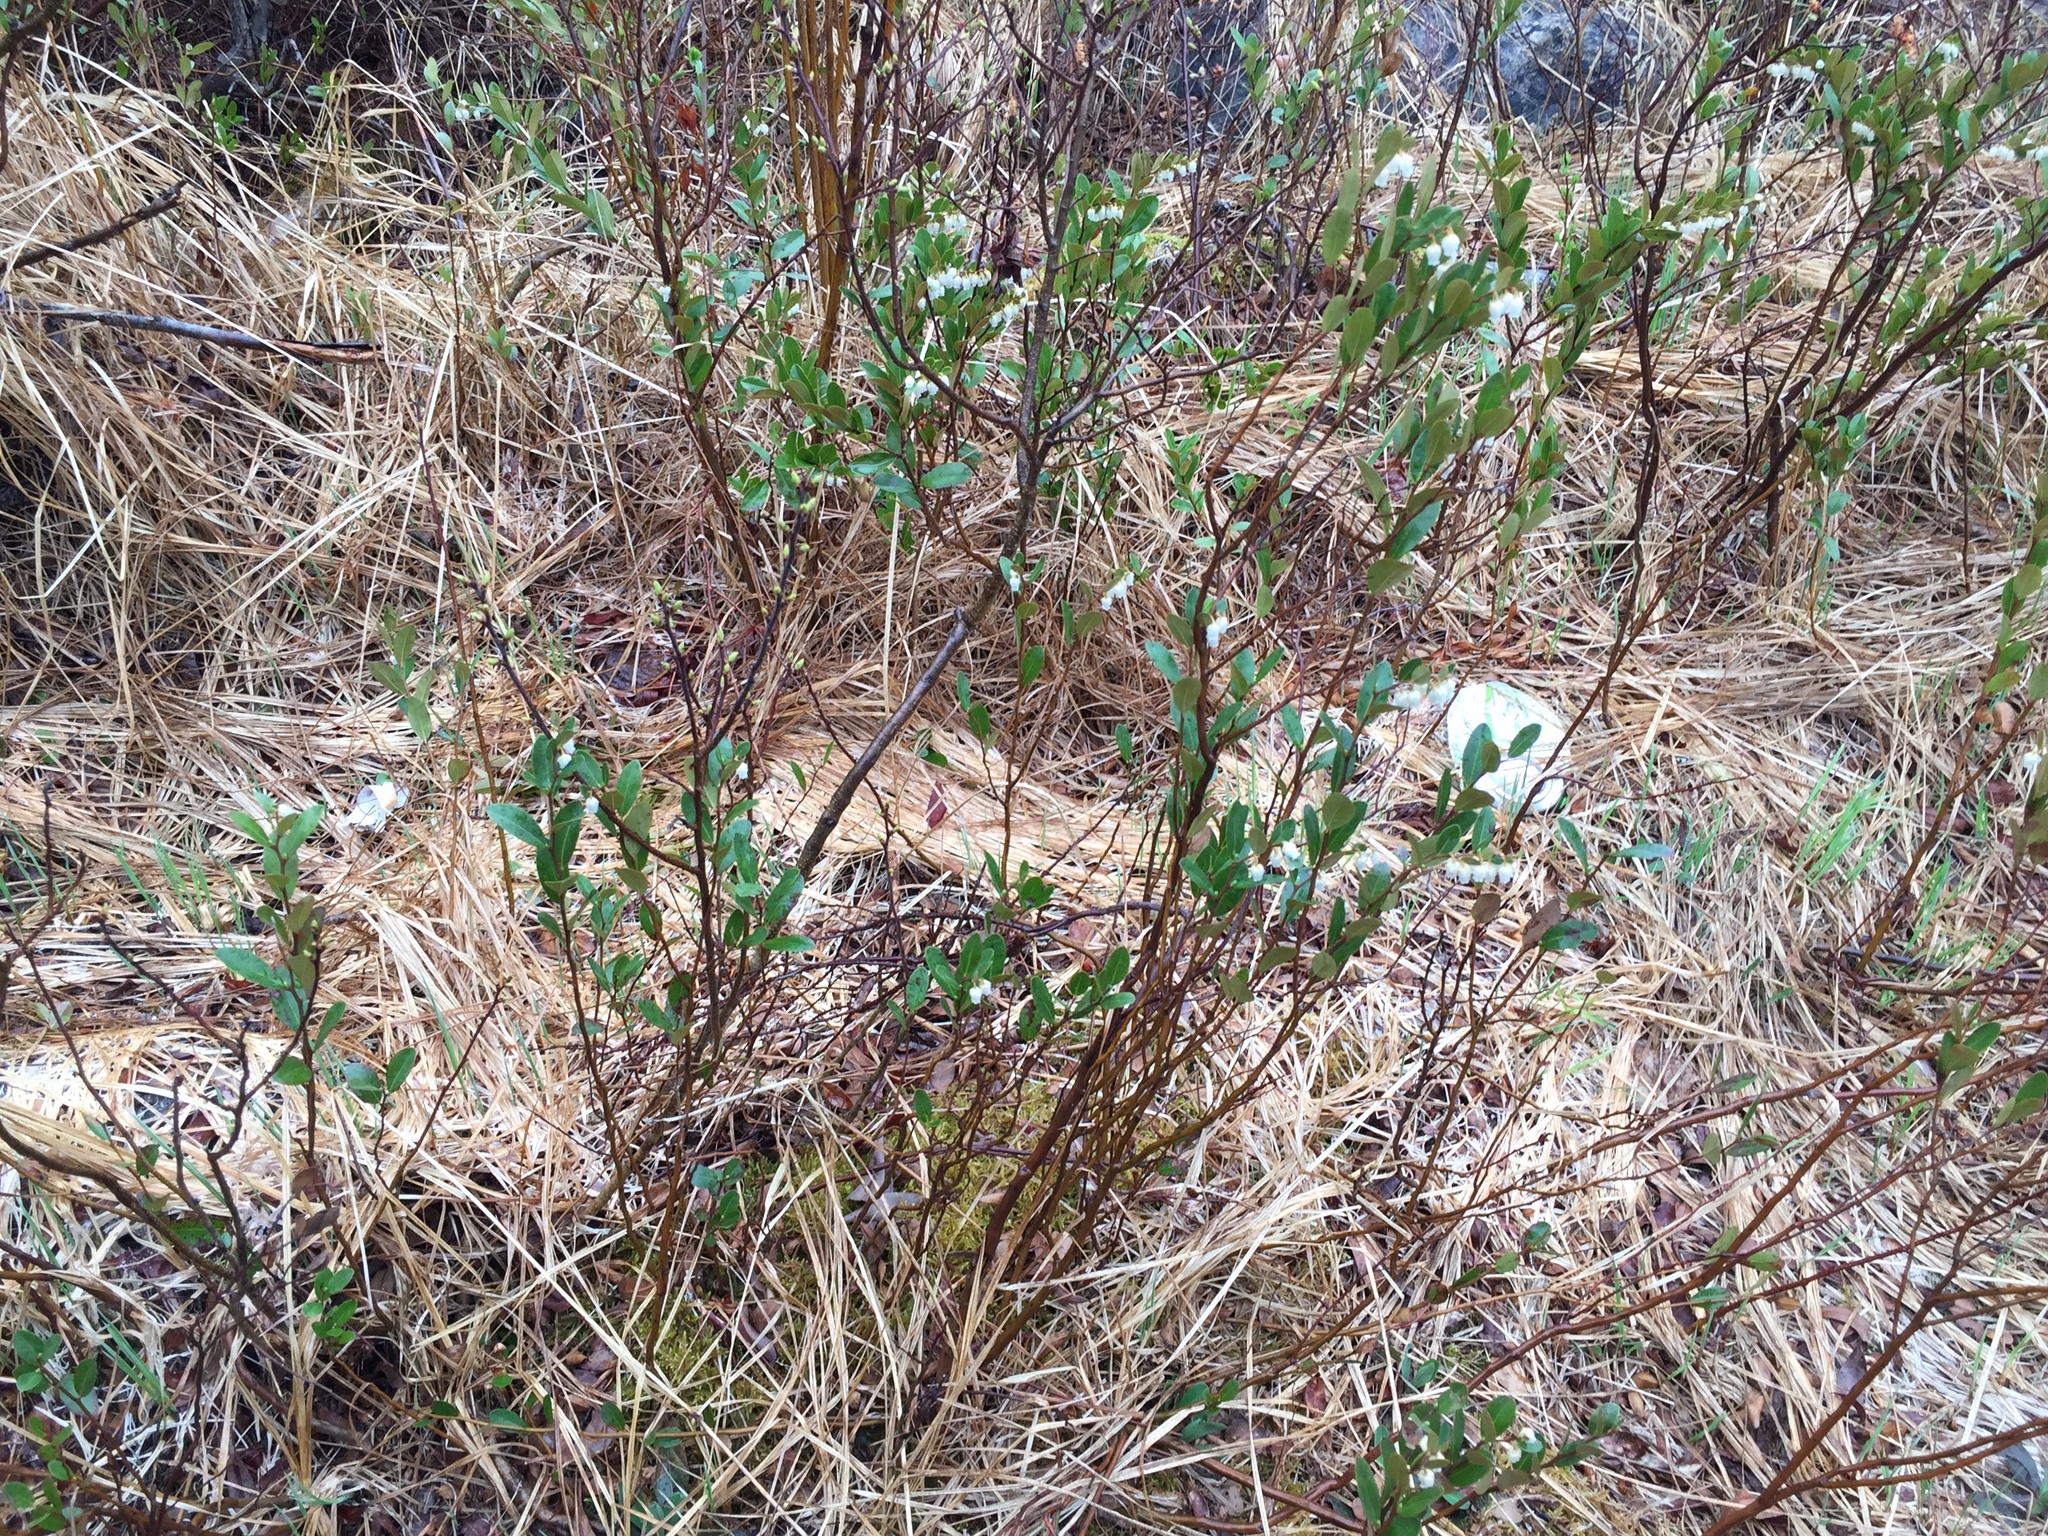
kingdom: Plantae
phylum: Tracheophyta
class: Magnoliopsida
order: Ericales
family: Ericaceae
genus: Chamaedaphne
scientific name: Chamaedaphne calyculata
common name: Leatherleaf
